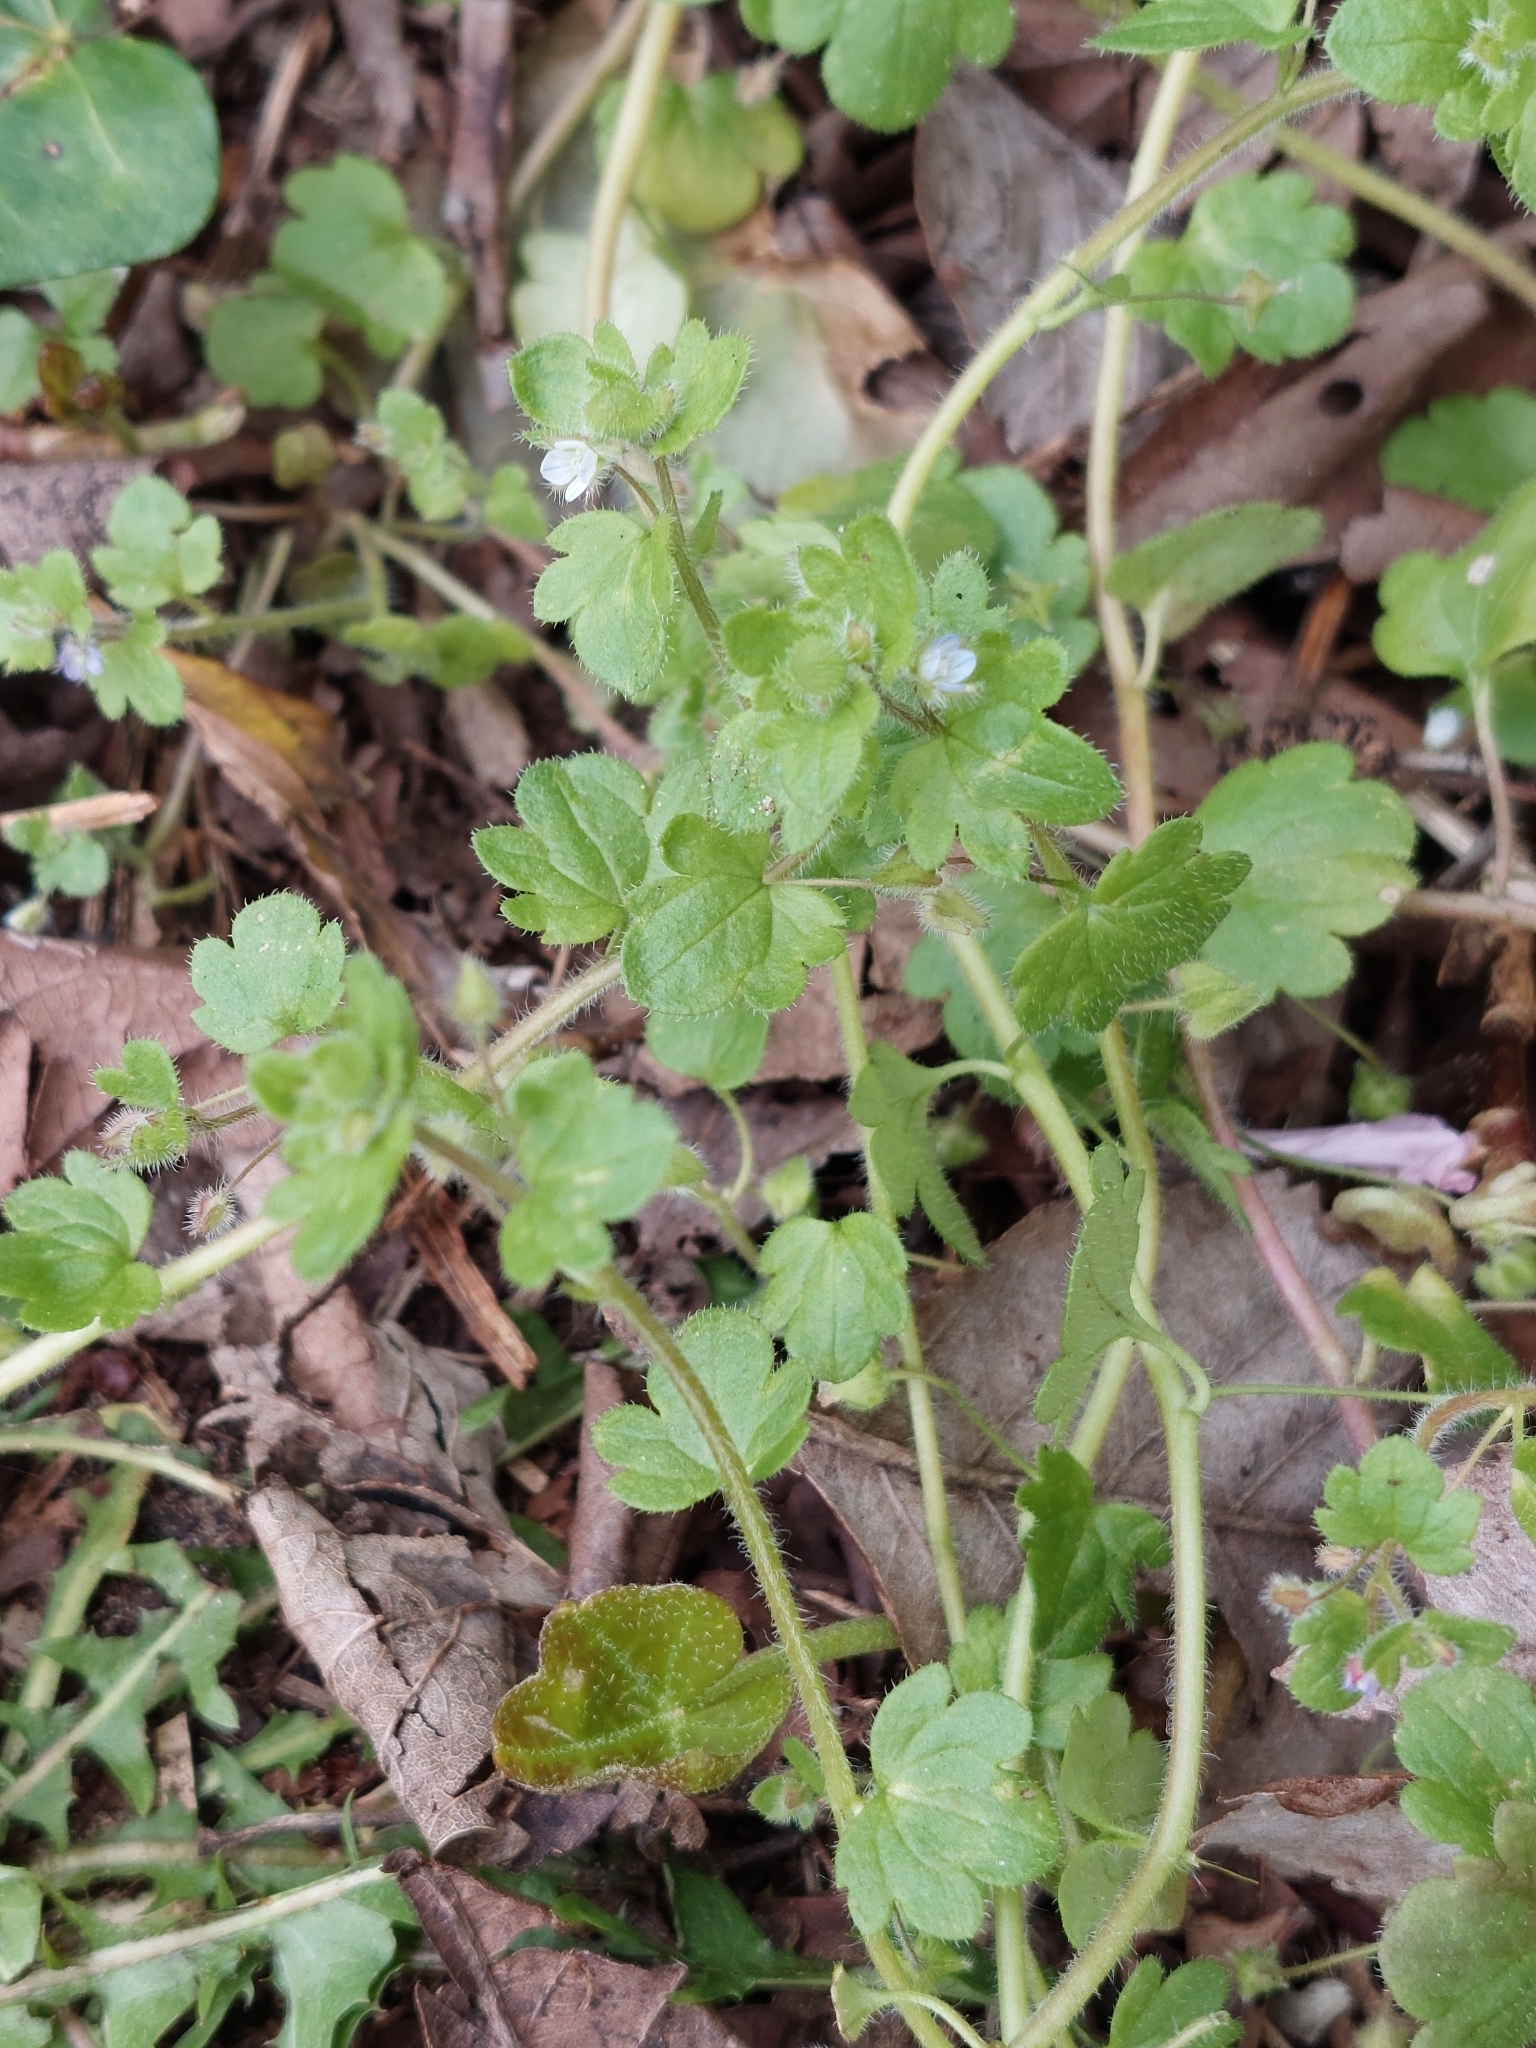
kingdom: Plantae
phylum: Tracheophyta
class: Magnoliopsida
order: Lamiales
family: Plantaginaceae
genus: Veronica
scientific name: Veronica sublobata
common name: False ivy-leaved speedwell
